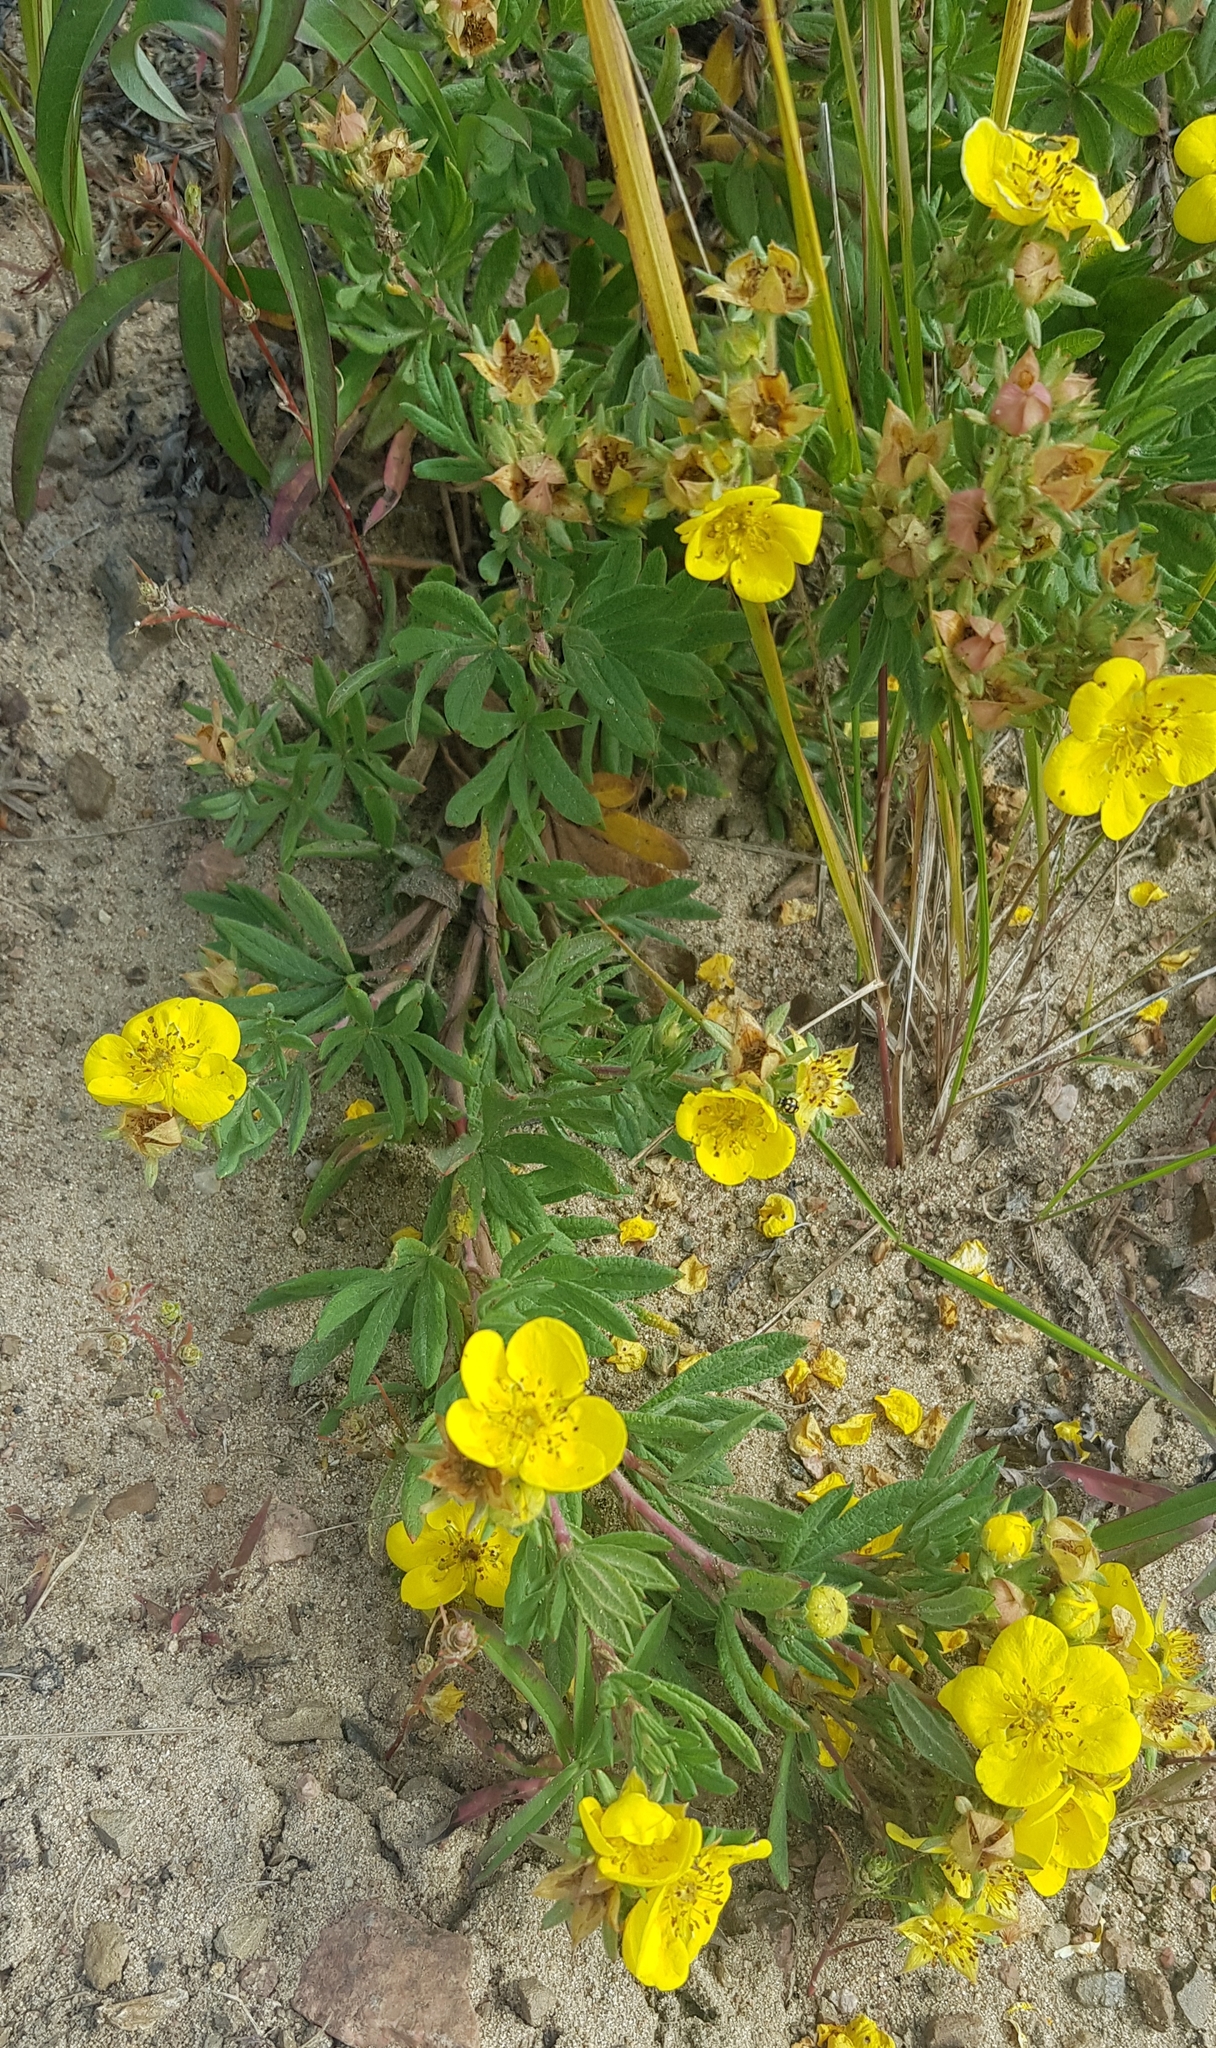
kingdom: Plantae
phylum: Tracheophyta
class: Magnoliopsida
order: Rosales
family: Rosaceae
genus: Dasiphora
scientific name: Dasiphora fruticosa
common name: Shrubby cinquefoil
